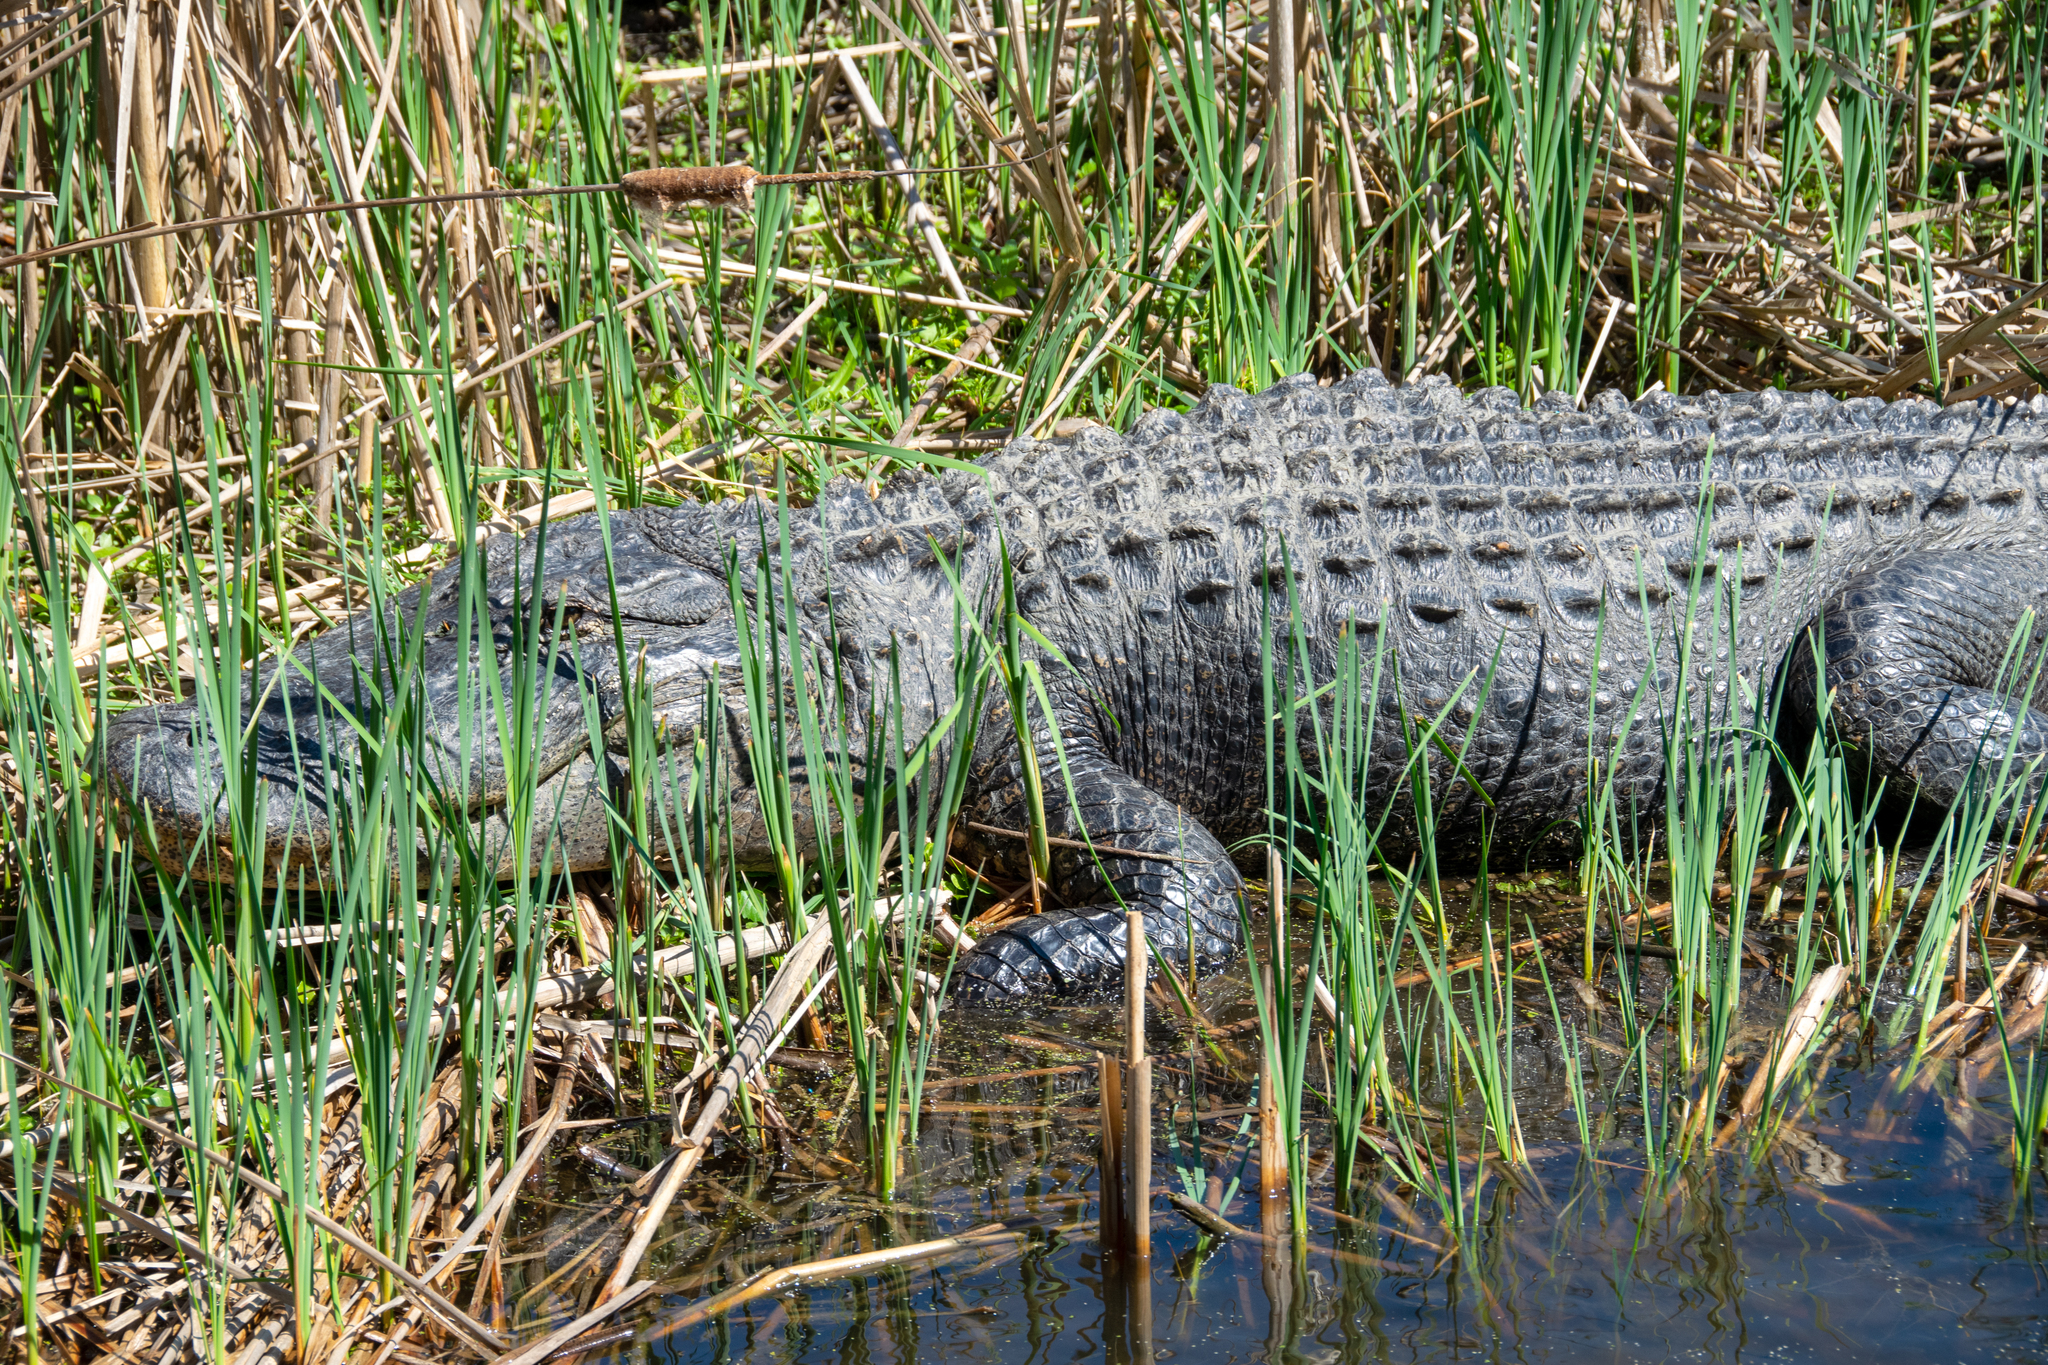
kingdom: Animalia
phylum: Chordata
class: Crocodylia
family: Alligatoridae
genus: Alligator
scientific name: Alligator mississippiensis
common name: American alligator
